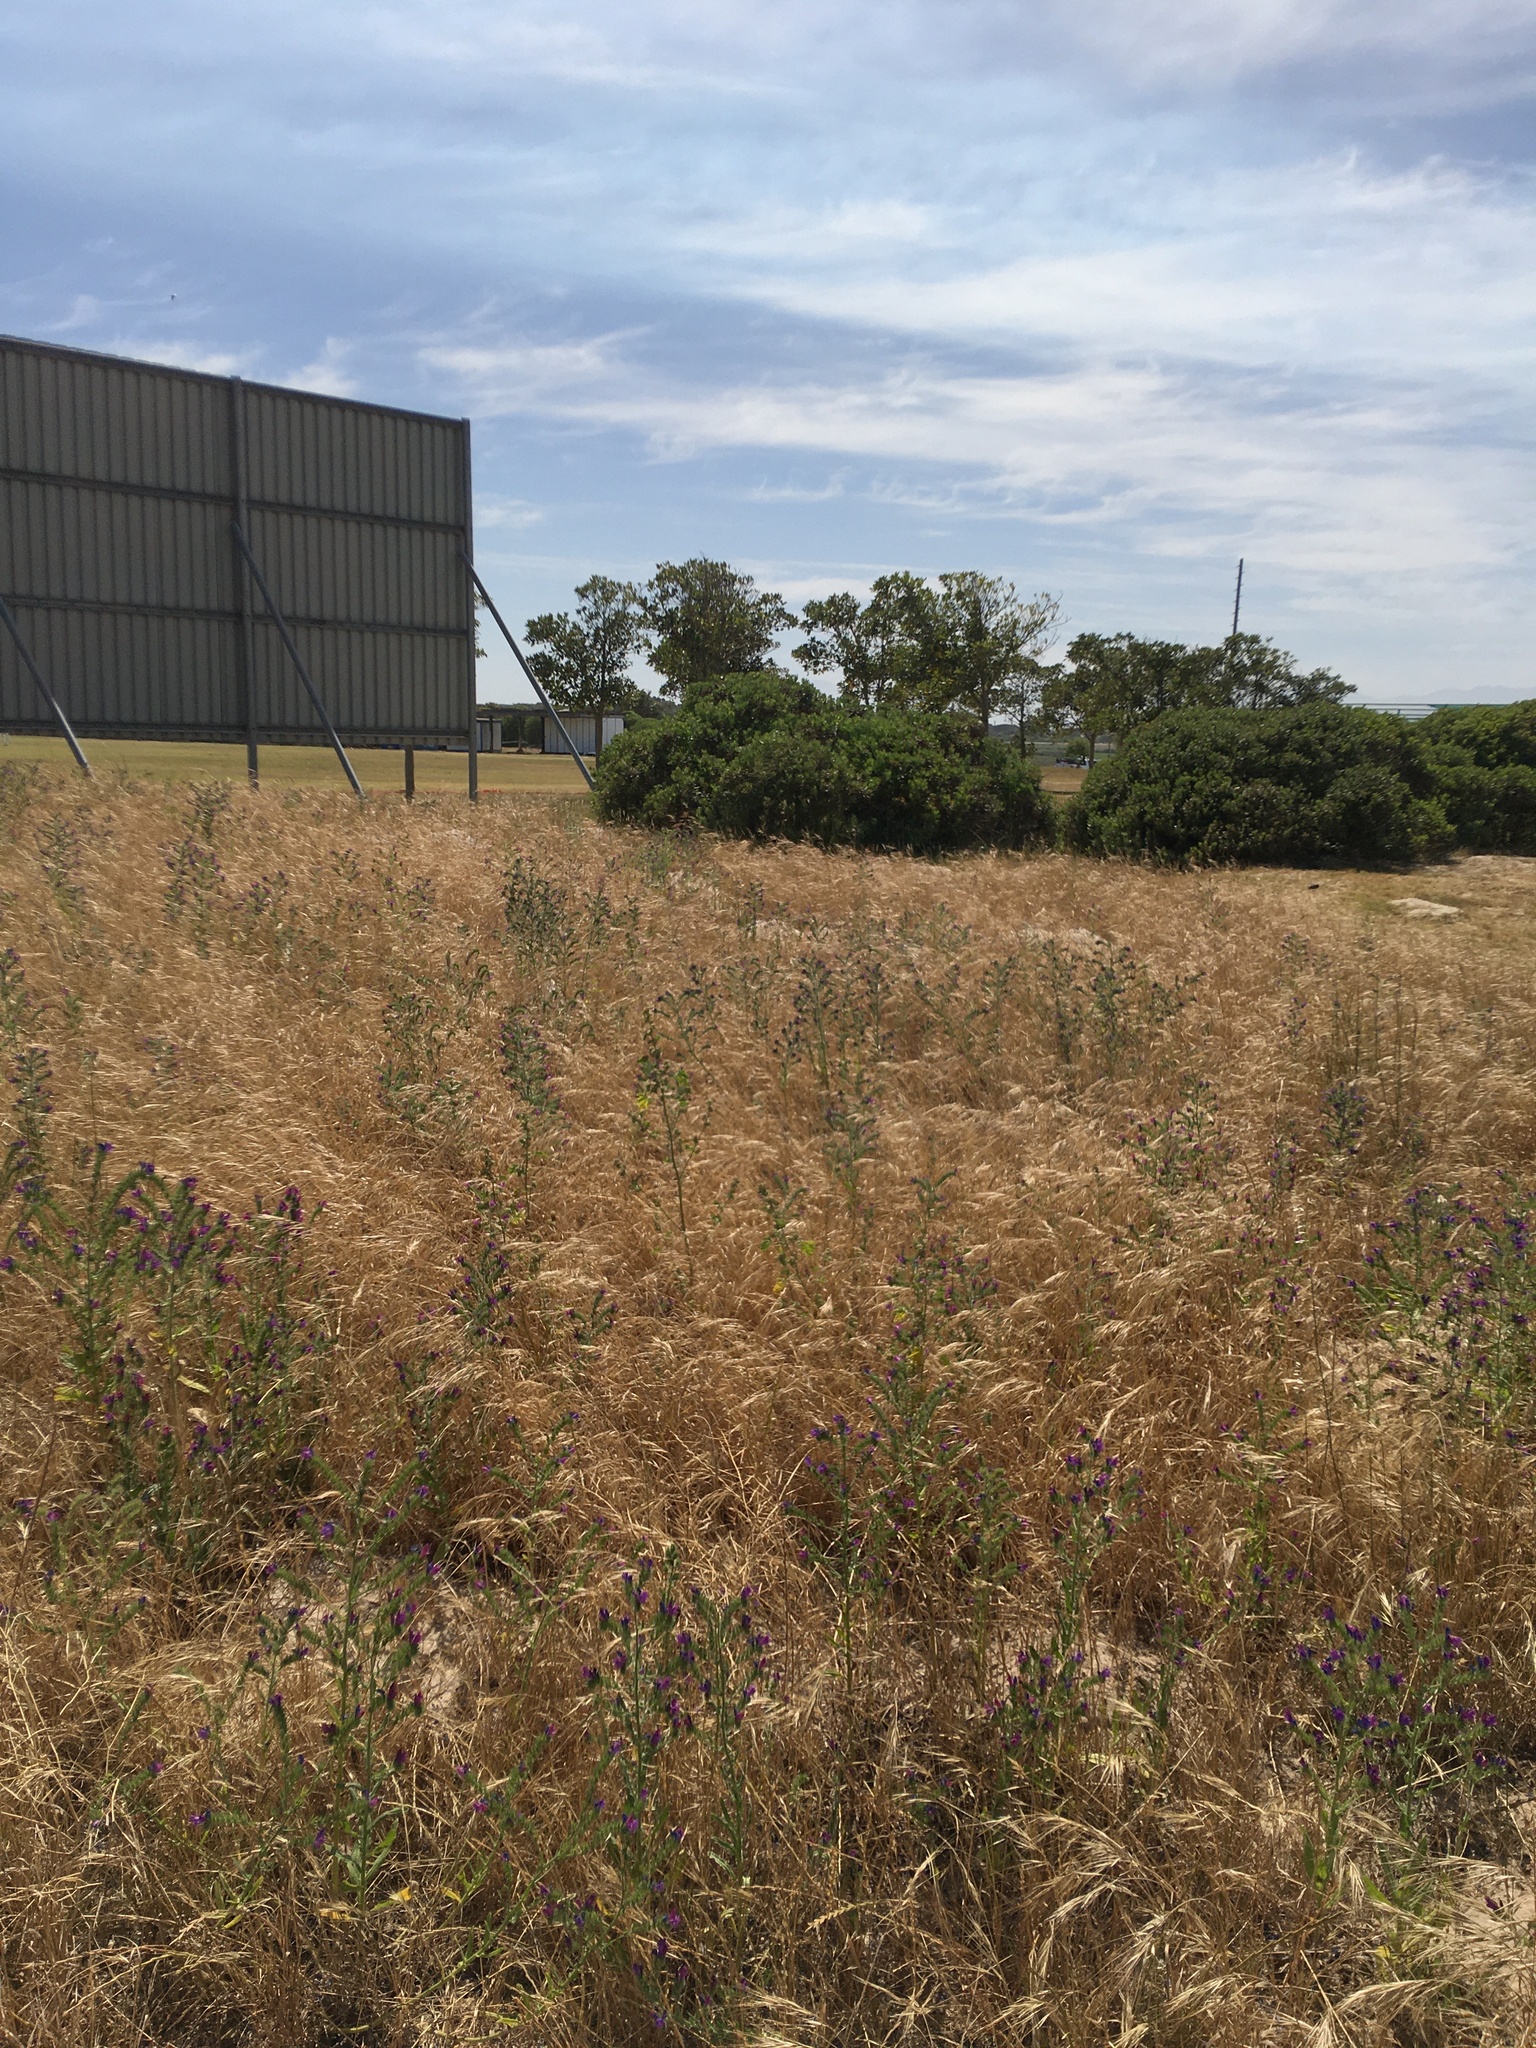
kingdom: Plantae
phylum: Tracheophyta
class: Magnoliopsida
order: Boraginales
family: Boraginaceae
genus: Echium
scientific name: Echium plantagineum
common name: Purple viper's-bugloss
